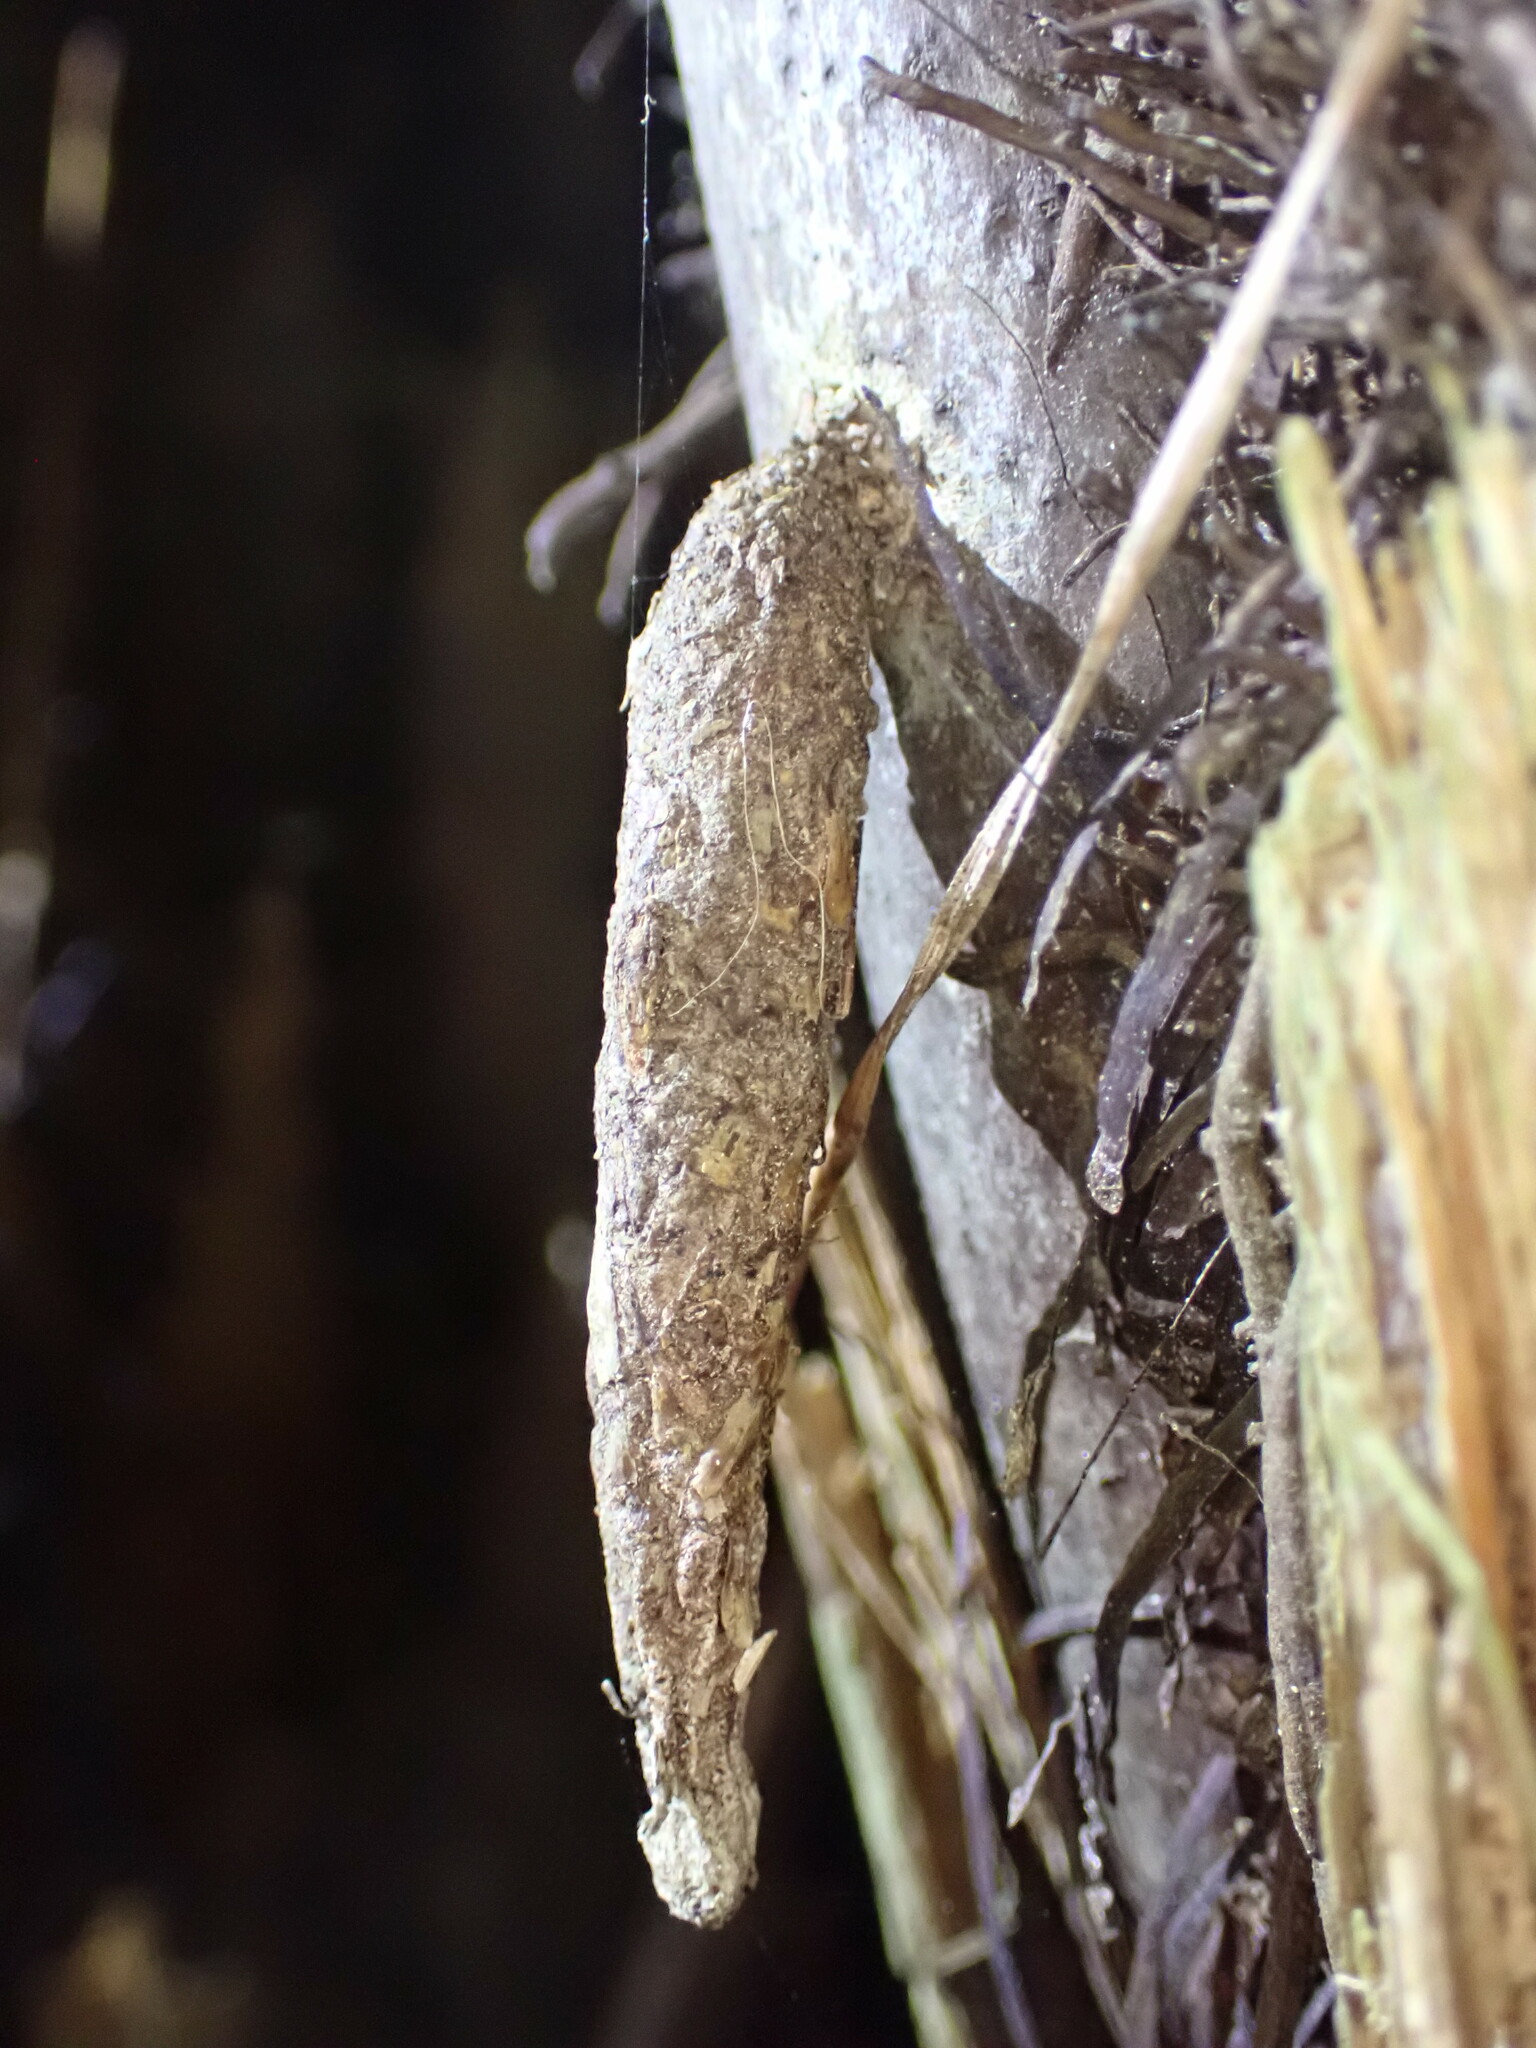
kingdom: Animalia
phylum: Arthropoda
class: Insecta
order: Lepidoptera
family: Psychidae
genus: Liothula
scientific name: Liothula omnivora
